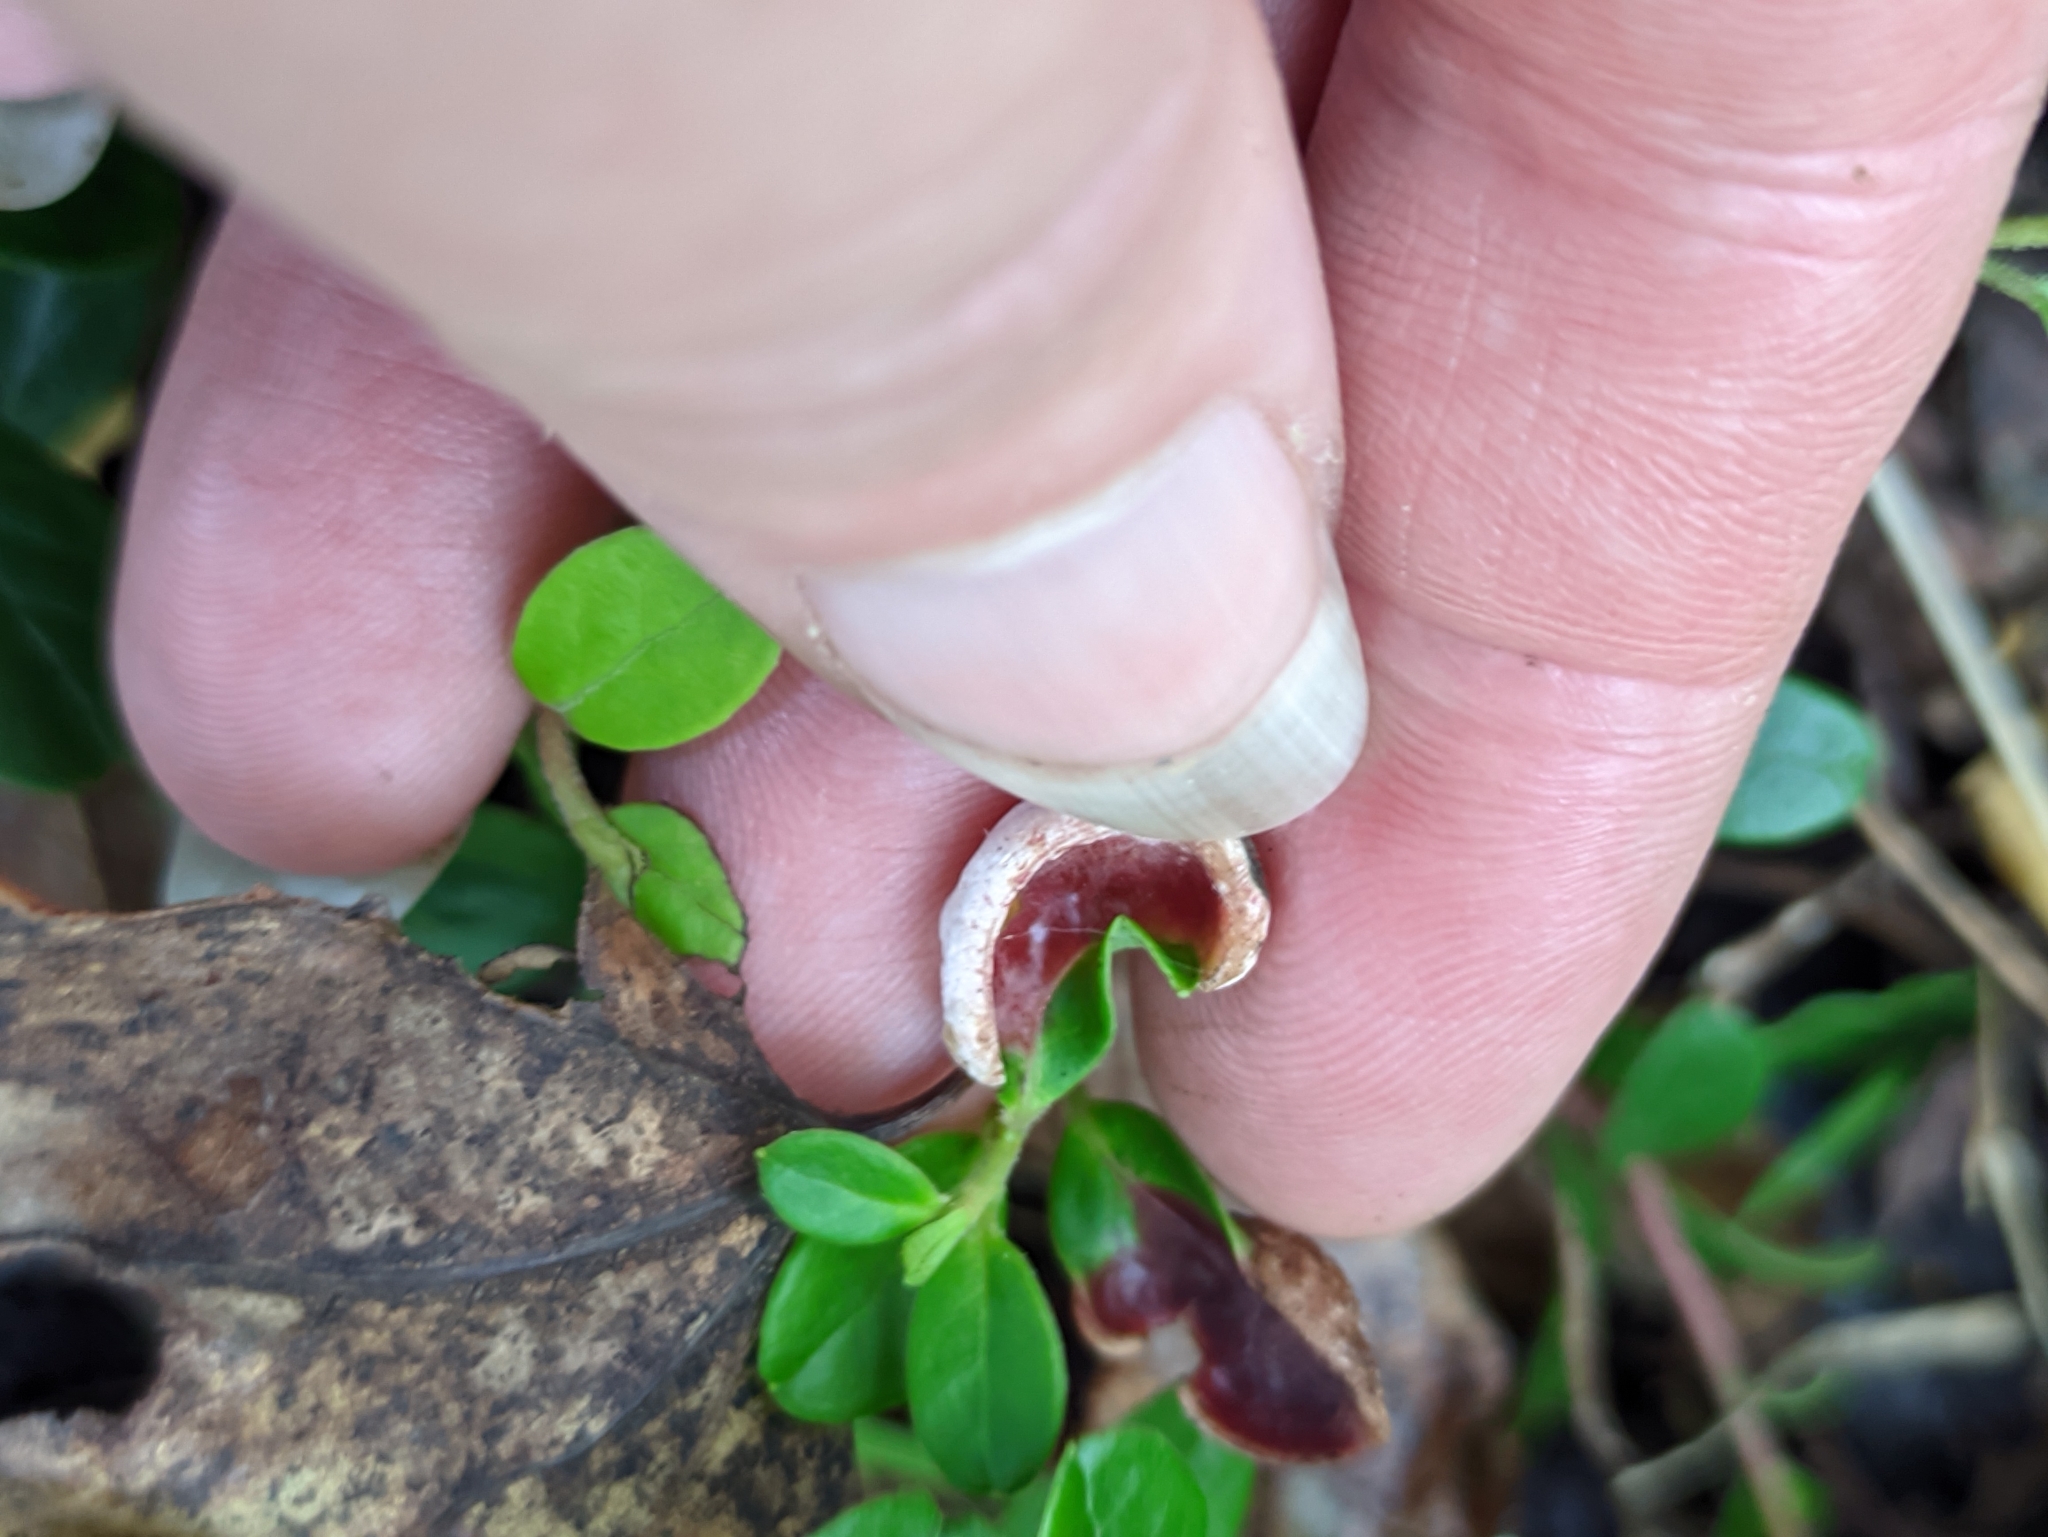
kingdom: Fungi
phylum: Basidiomycota
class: Exobasidiomycetes
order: Exobasidiales
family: Exobasidiaceae
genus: Exobasidium
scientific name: Exobasidium vaccinii
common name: Cowberry redleaf
